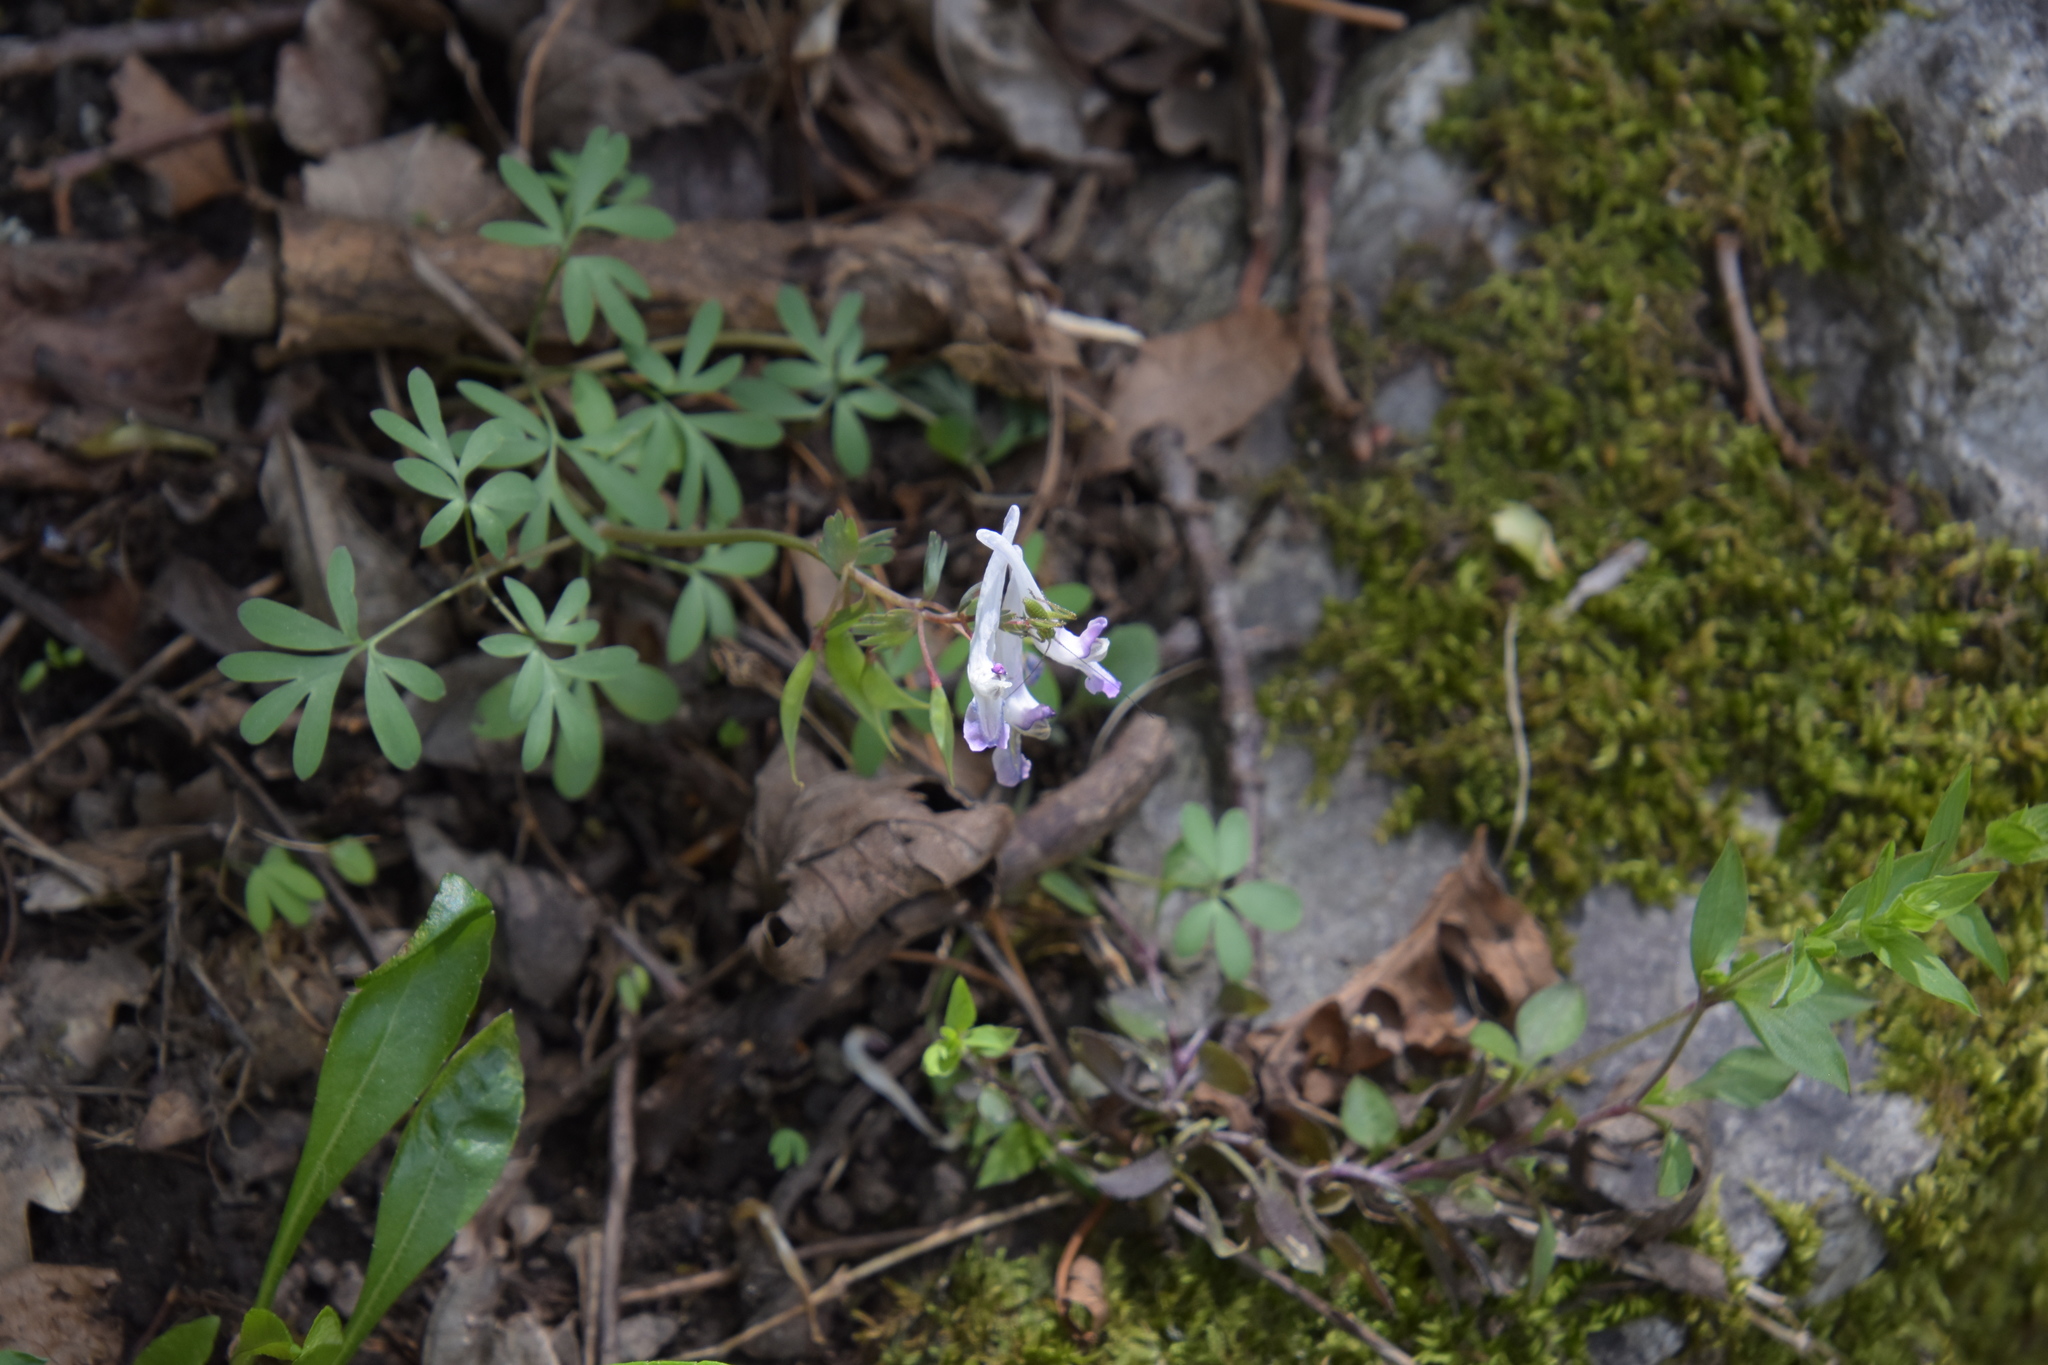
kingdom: Plantae
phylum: Tracheophyta
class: Magnoliopsida
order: Ranunculales
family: Papaveraceae
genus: Corydalis
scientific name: Corydalis solida
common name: Bird-in-a-bush
